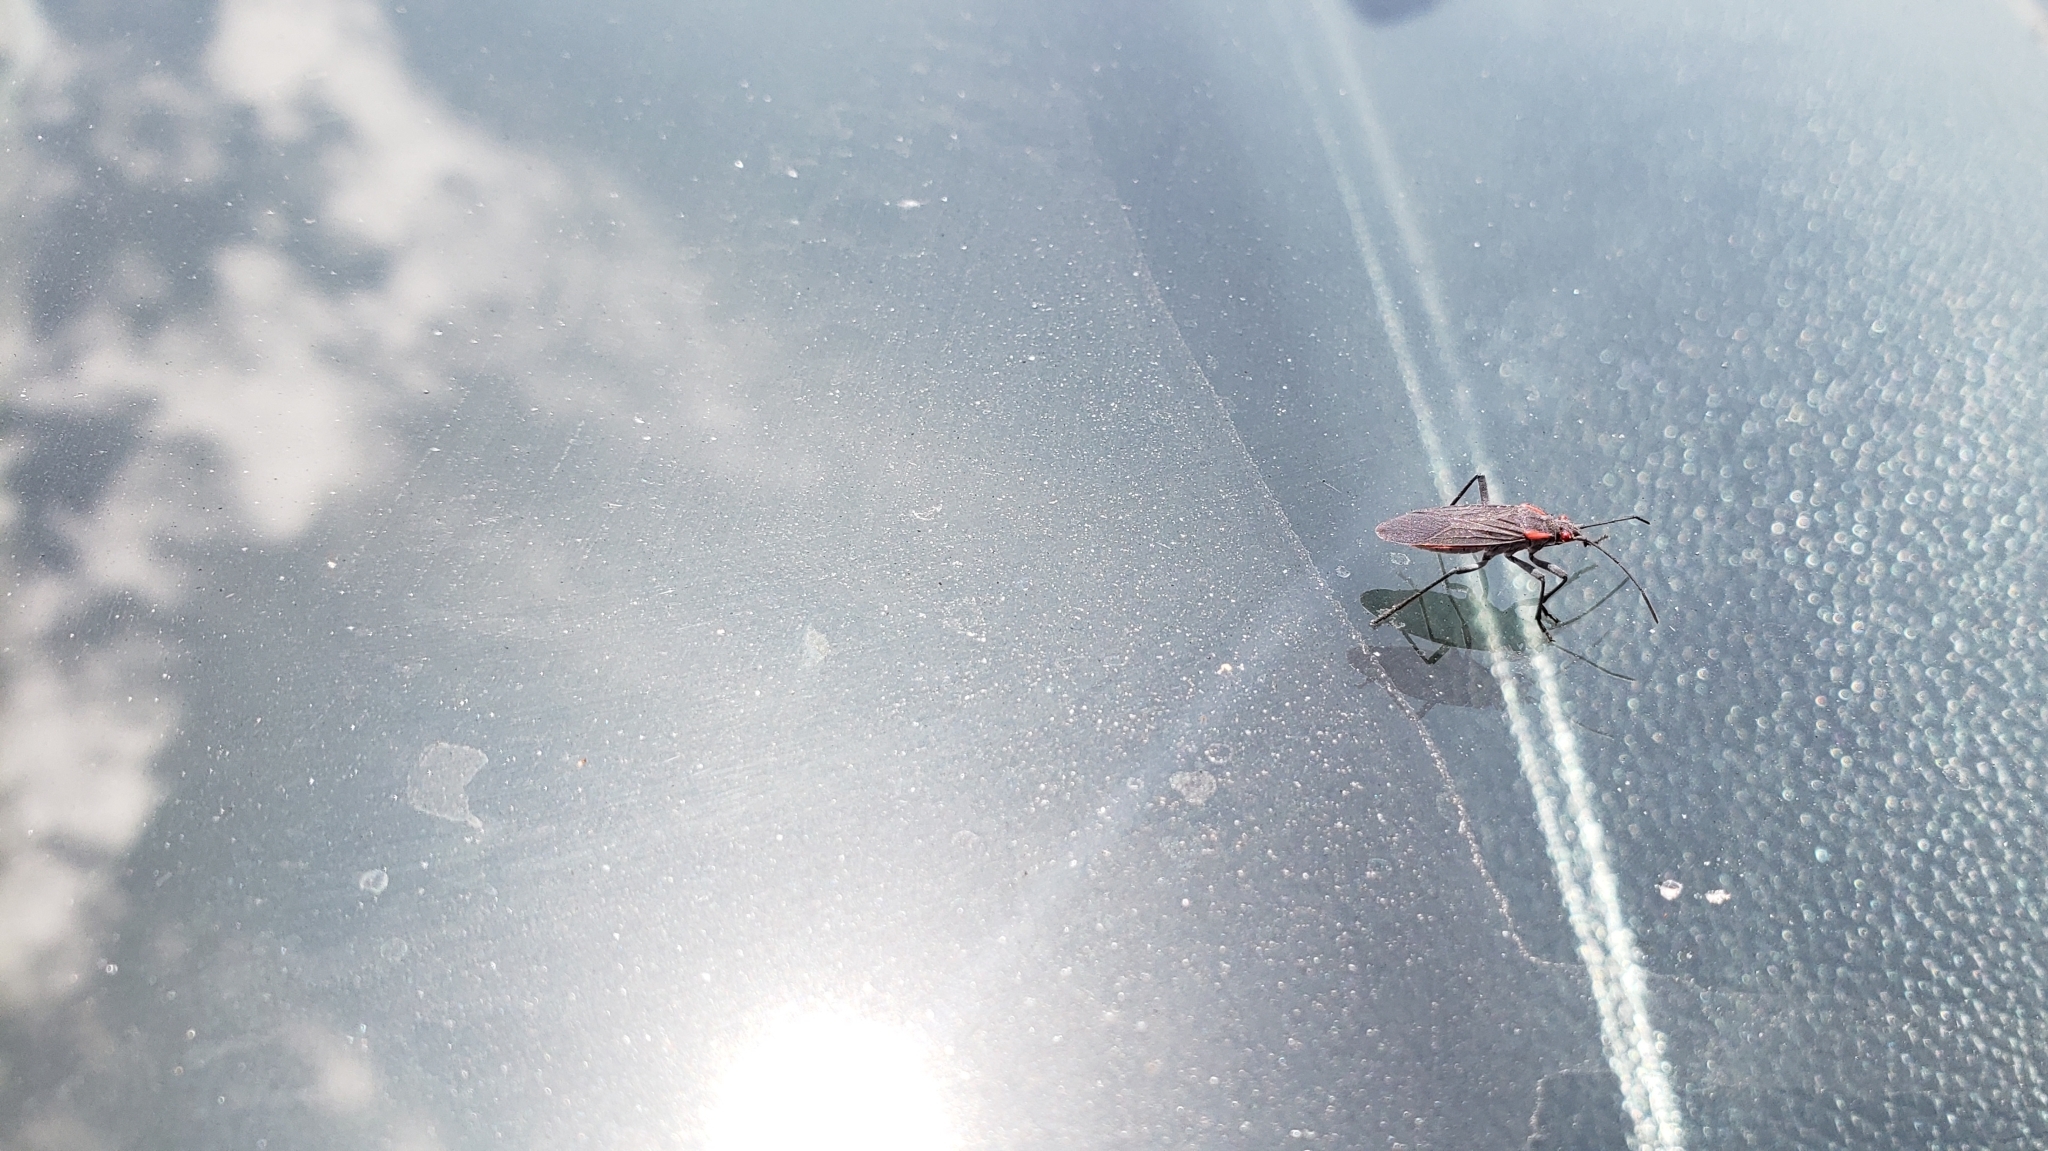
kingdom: Animalia
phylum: Arthropoda
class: Insecta
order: Hemiptera
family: Rhopalidae
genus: Jadera
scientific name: Jadera haematoloma
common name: Red-shouldered bug
